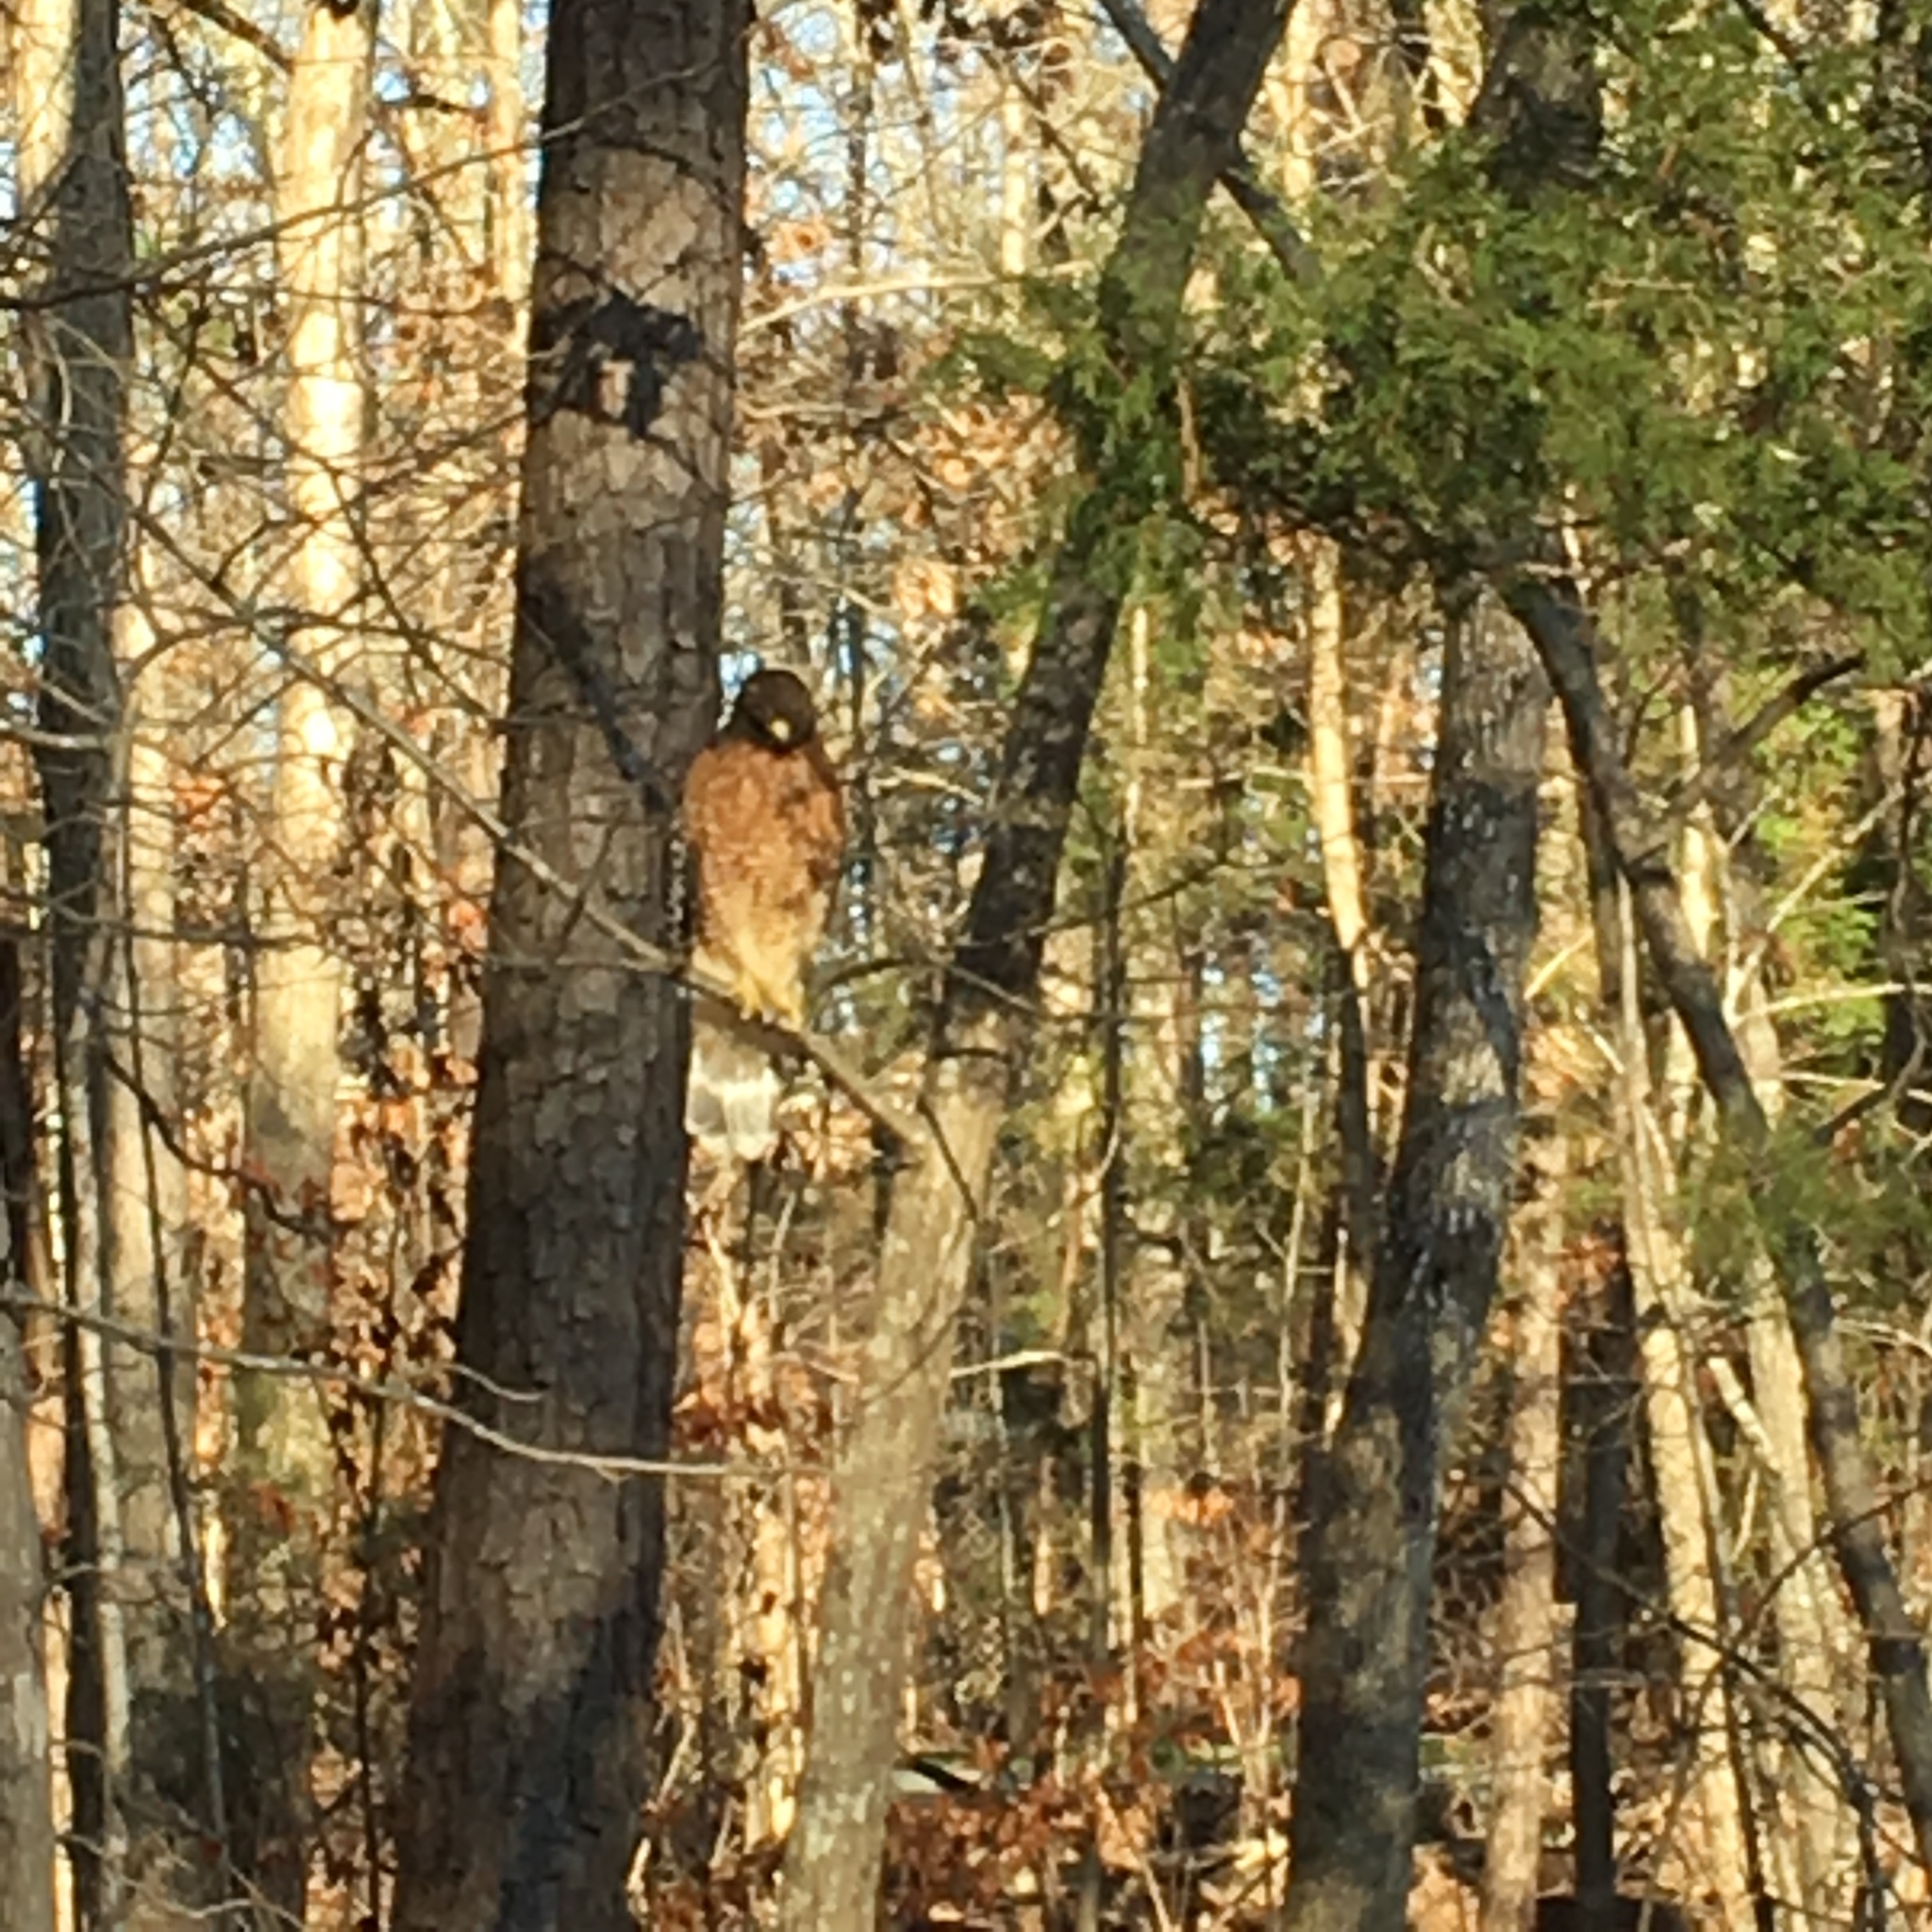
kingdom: Animalia
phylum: Chordata
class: Aves
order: Accipitriformes
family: Accipitridae
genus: Buteo
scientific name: Buteo lineatus
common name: Red-shouldered hawk
